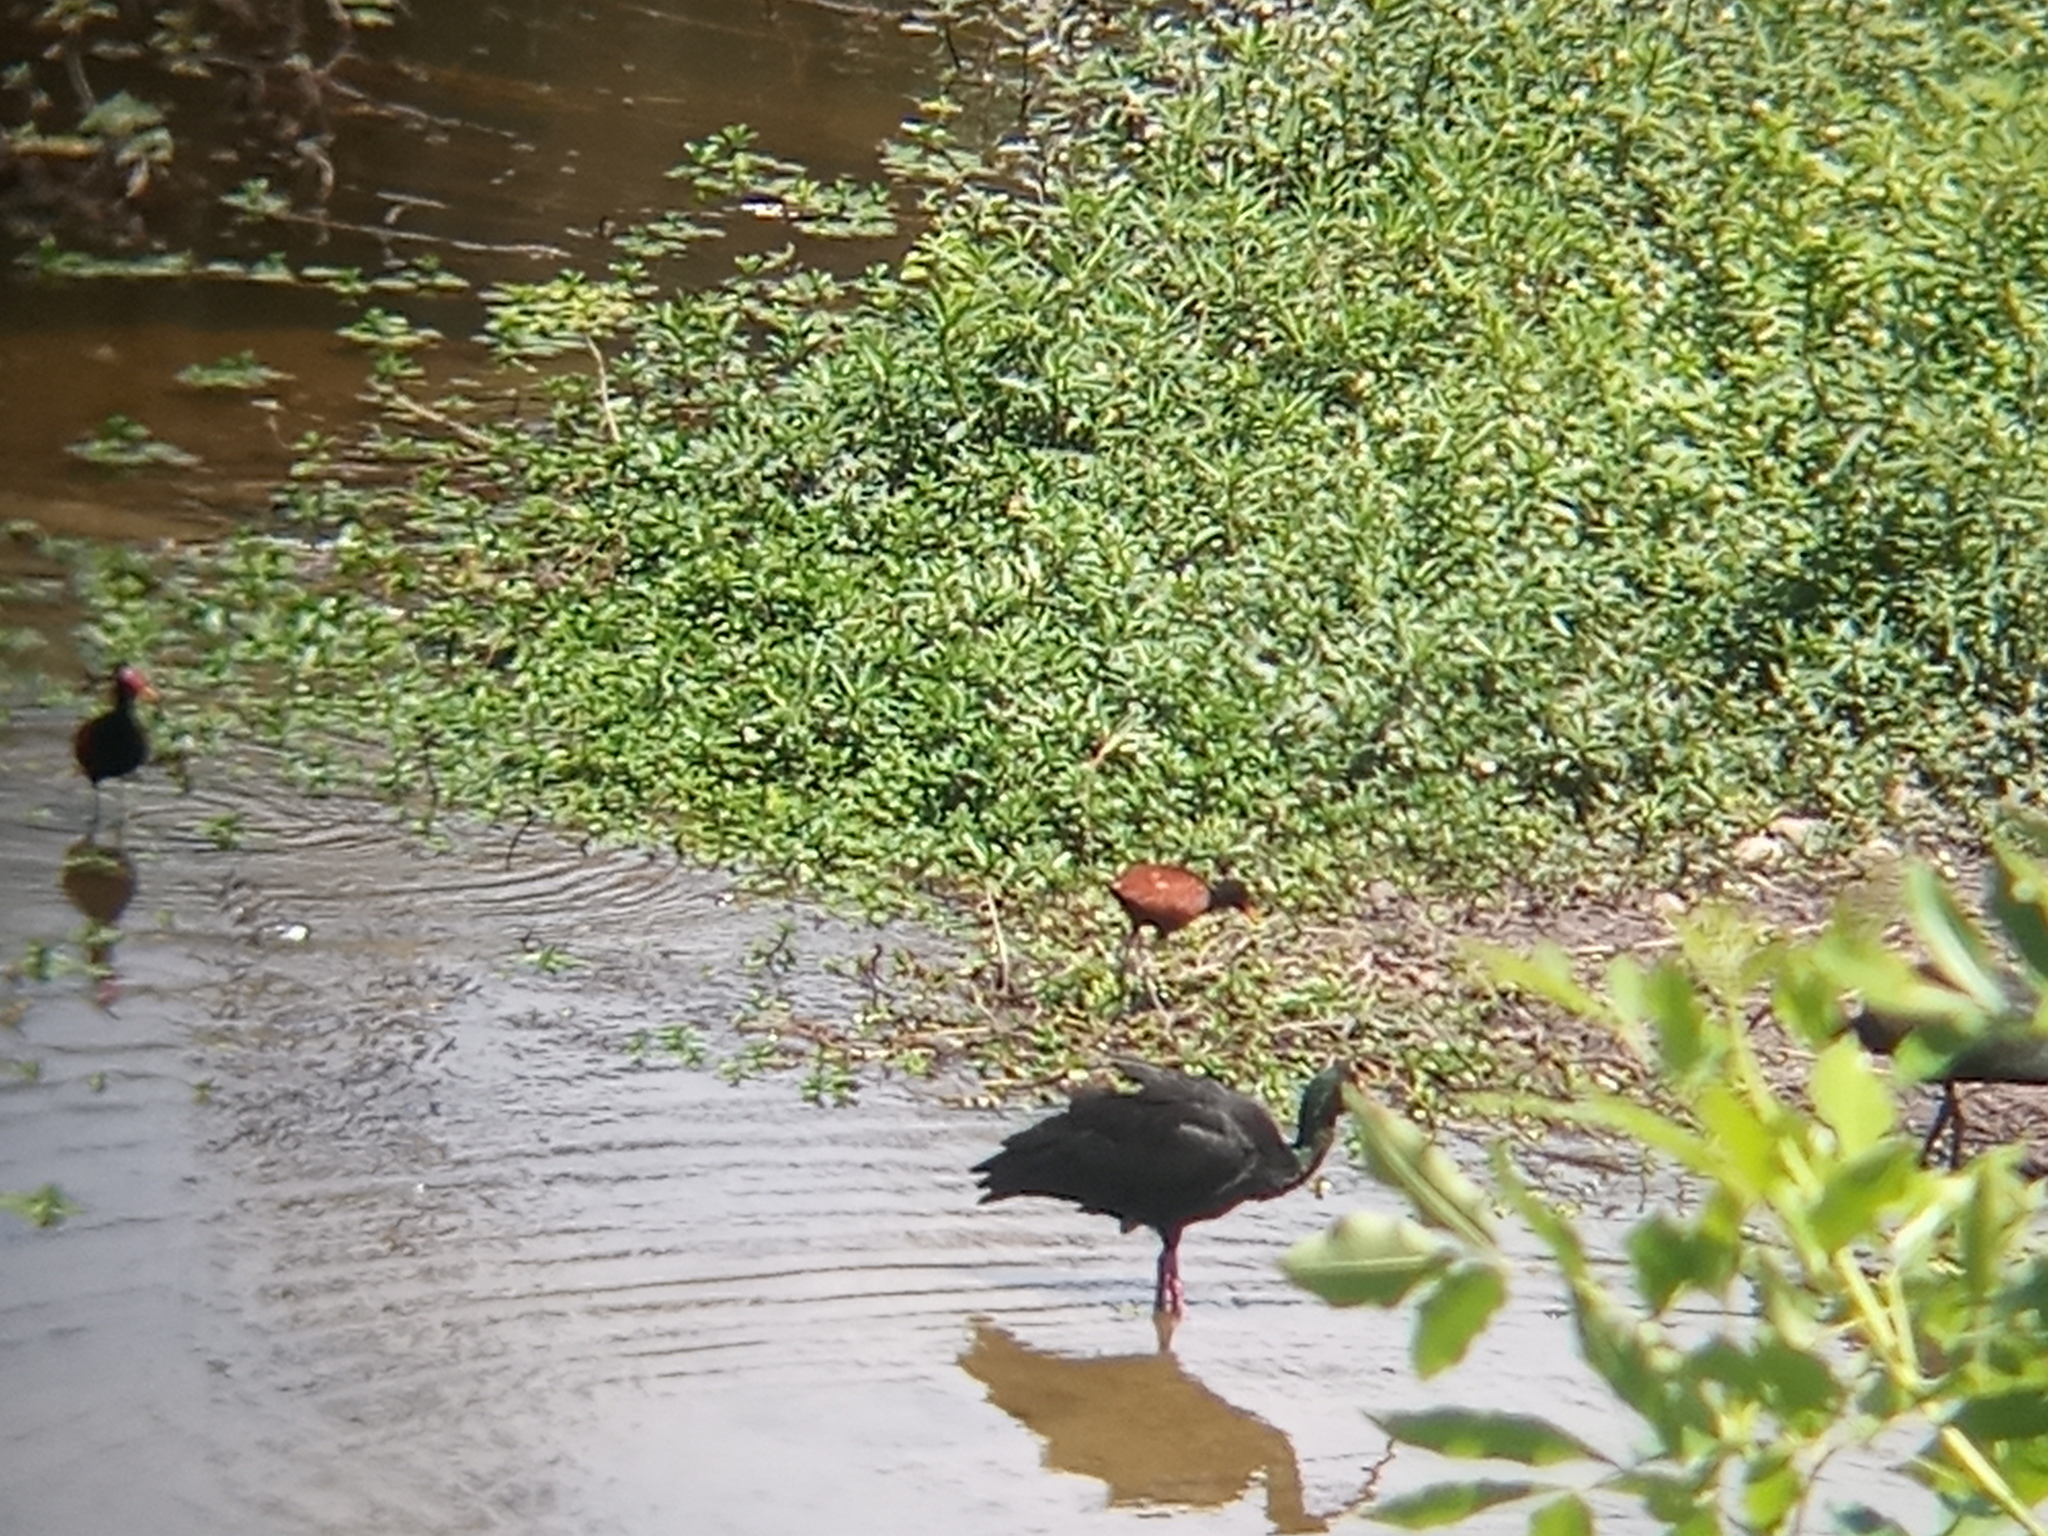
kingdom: Animalia
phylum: Chordata
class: Aves
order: Charadriiformes
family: Jacanidae
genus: Jacana
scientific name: Jacana jacana
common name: Wattled jacana
